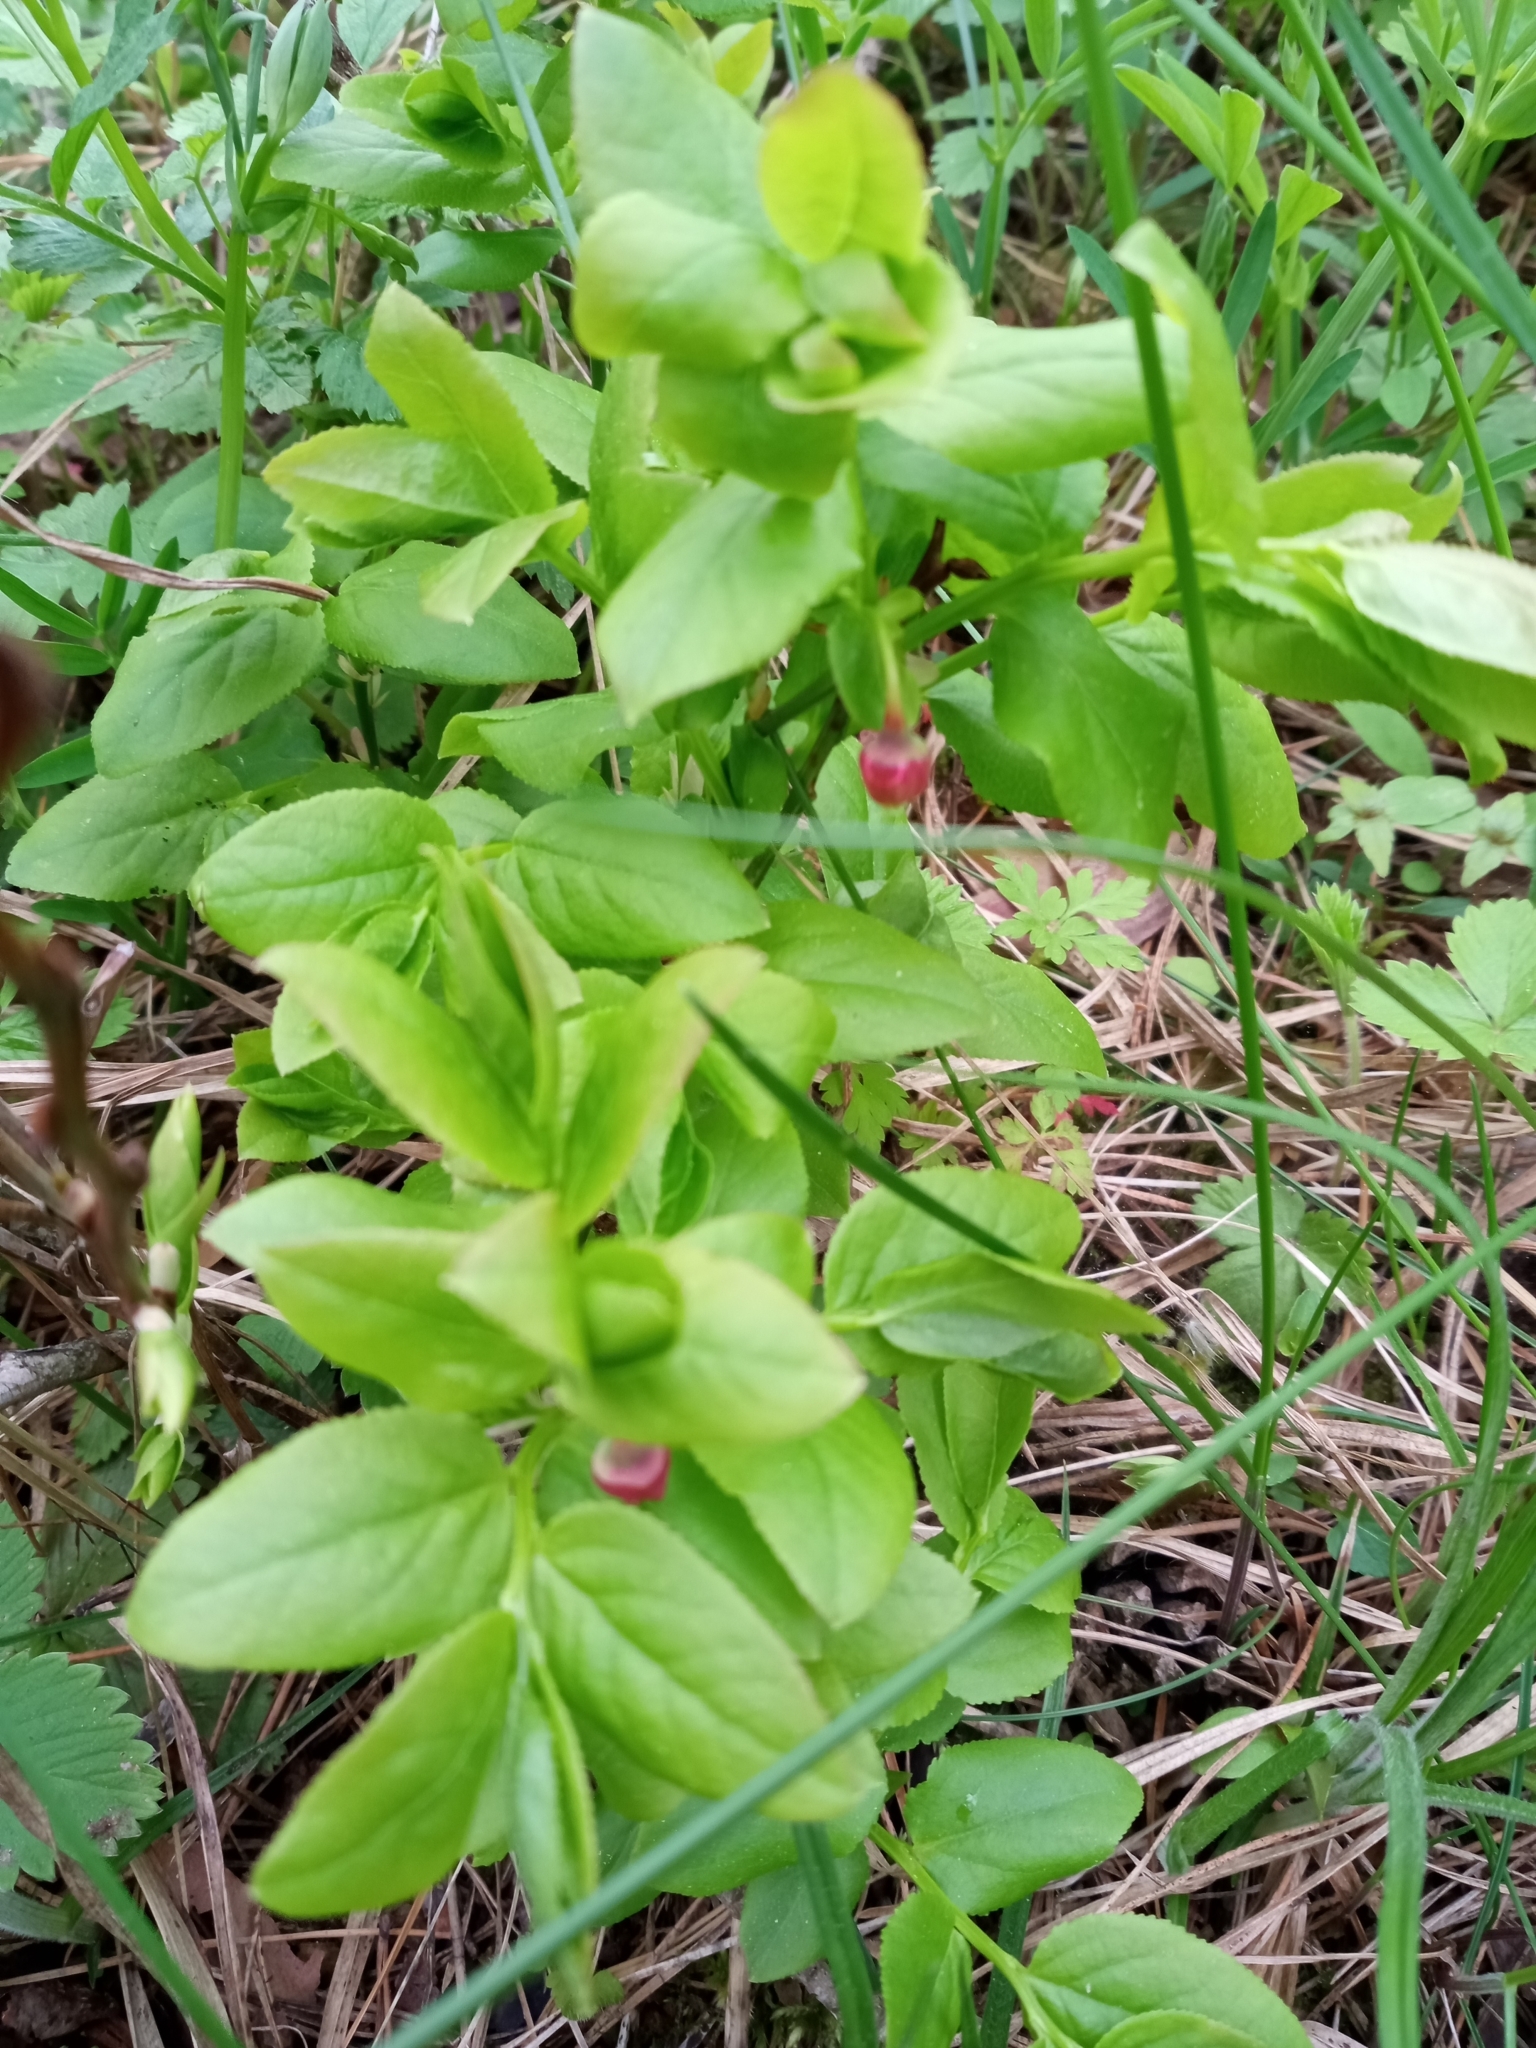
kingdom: Plantae
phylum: Tracheophyta
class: Magnoliopsida
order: Ericales
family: Ericaceae
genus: Vaccinium
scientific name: Vaccinium myrtillus
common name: Bilberry
